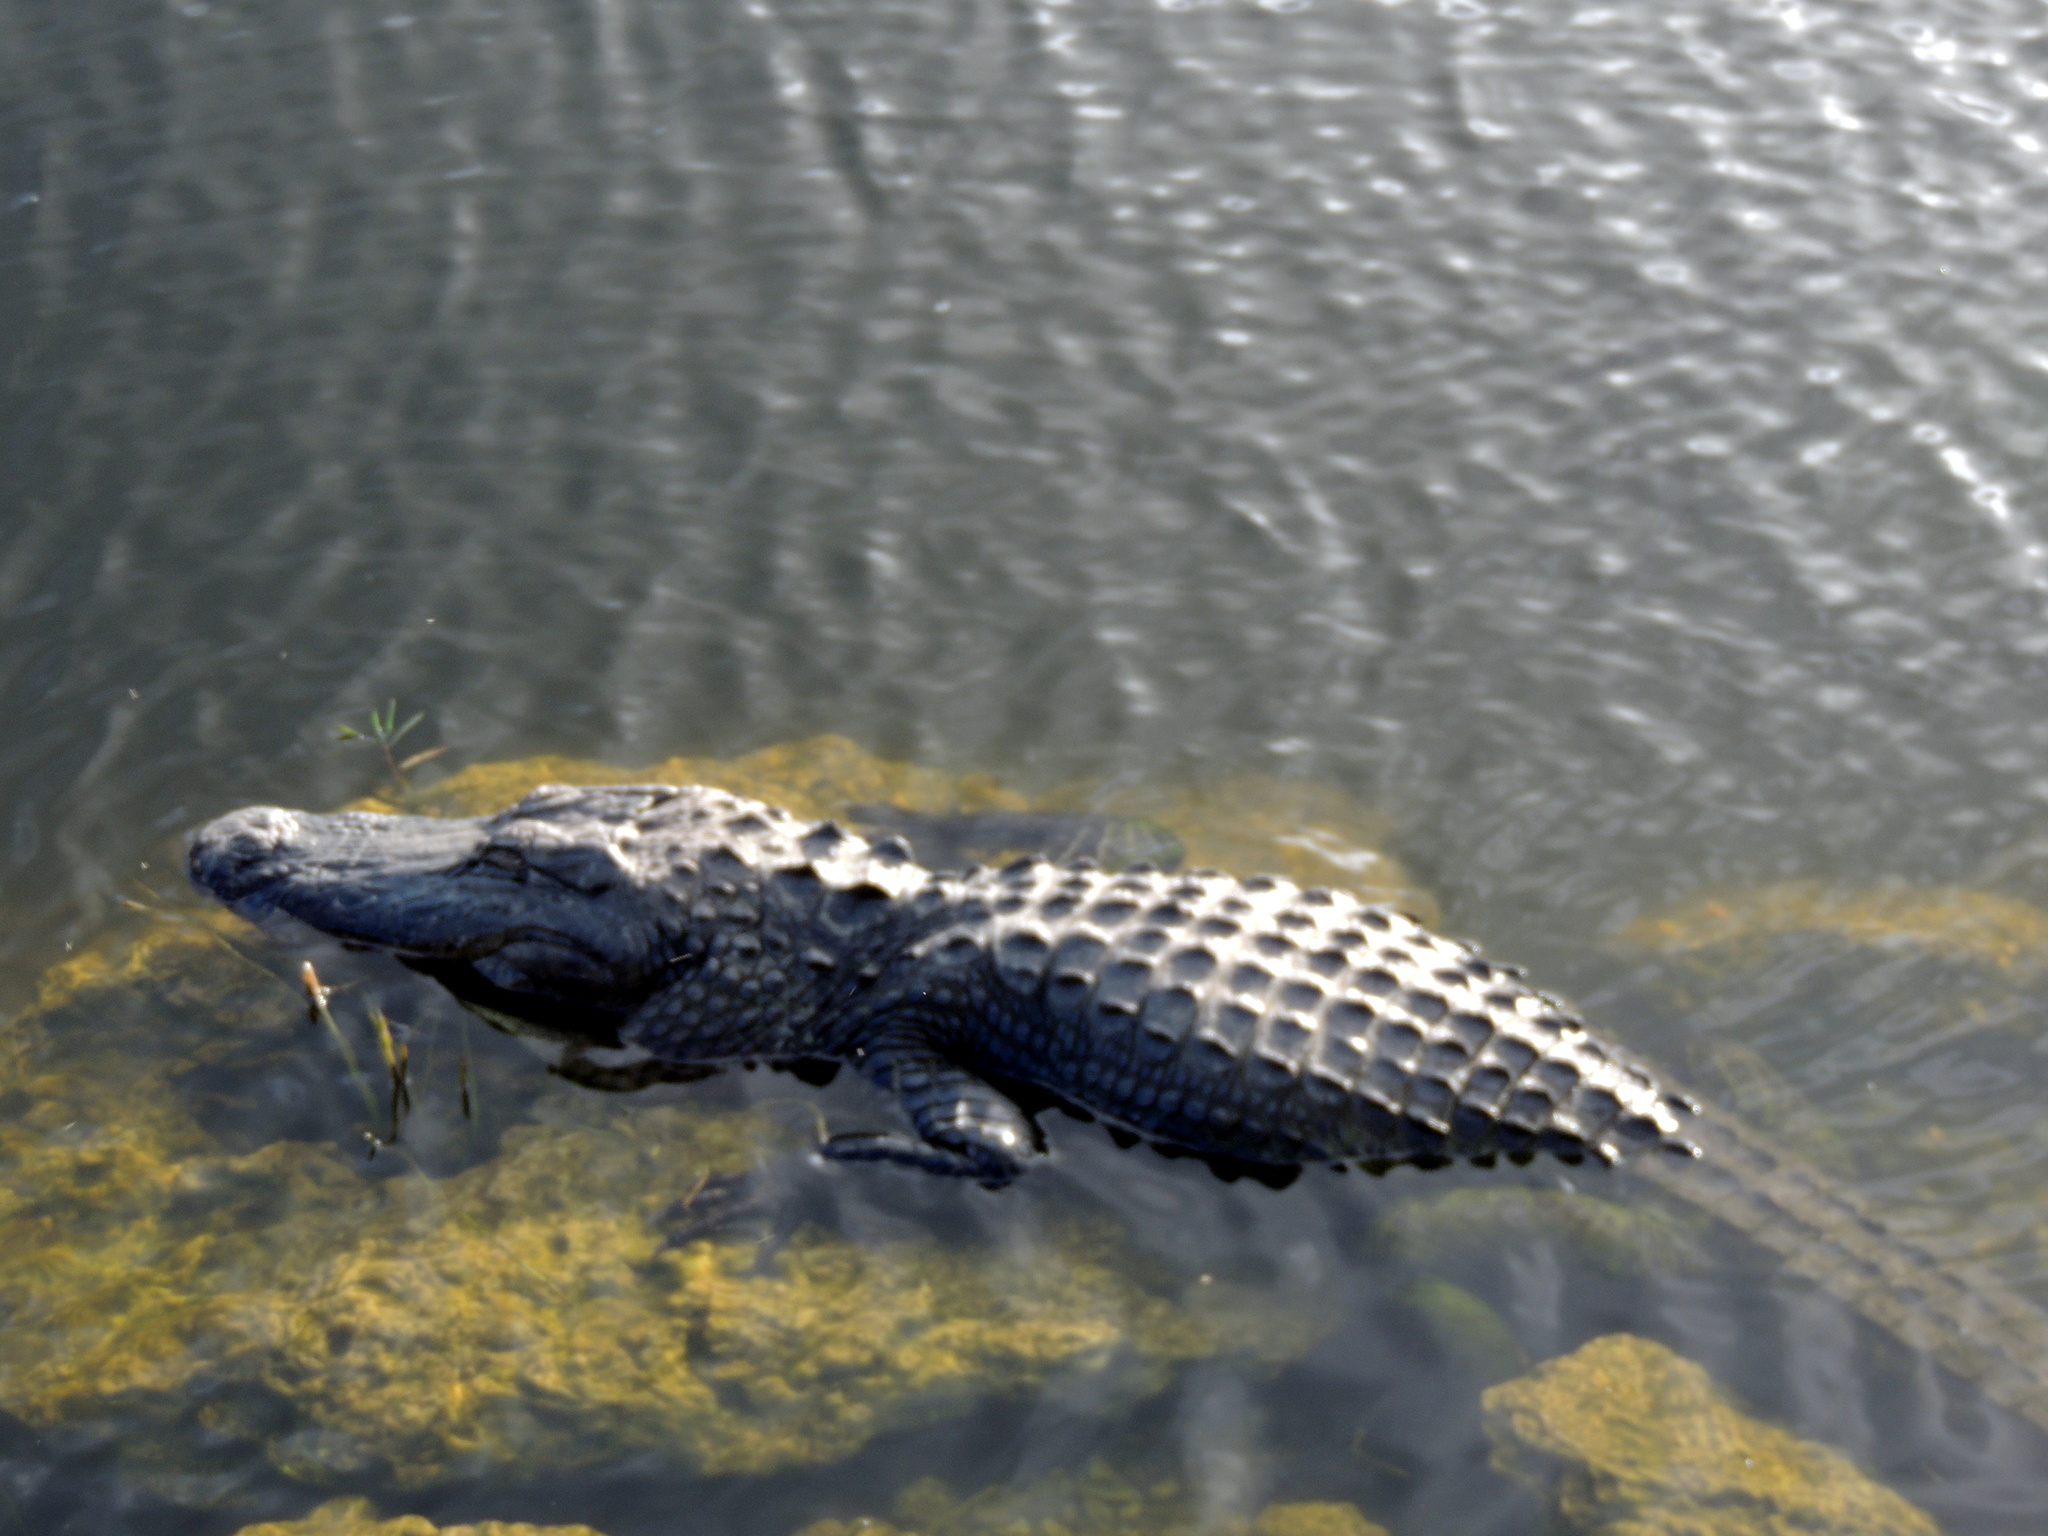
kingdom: Animalia
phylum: Chordata
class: Crocodylia
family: Alligatoridae
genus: Alligator
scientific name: Alligator mississippiensis
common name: American alligator
